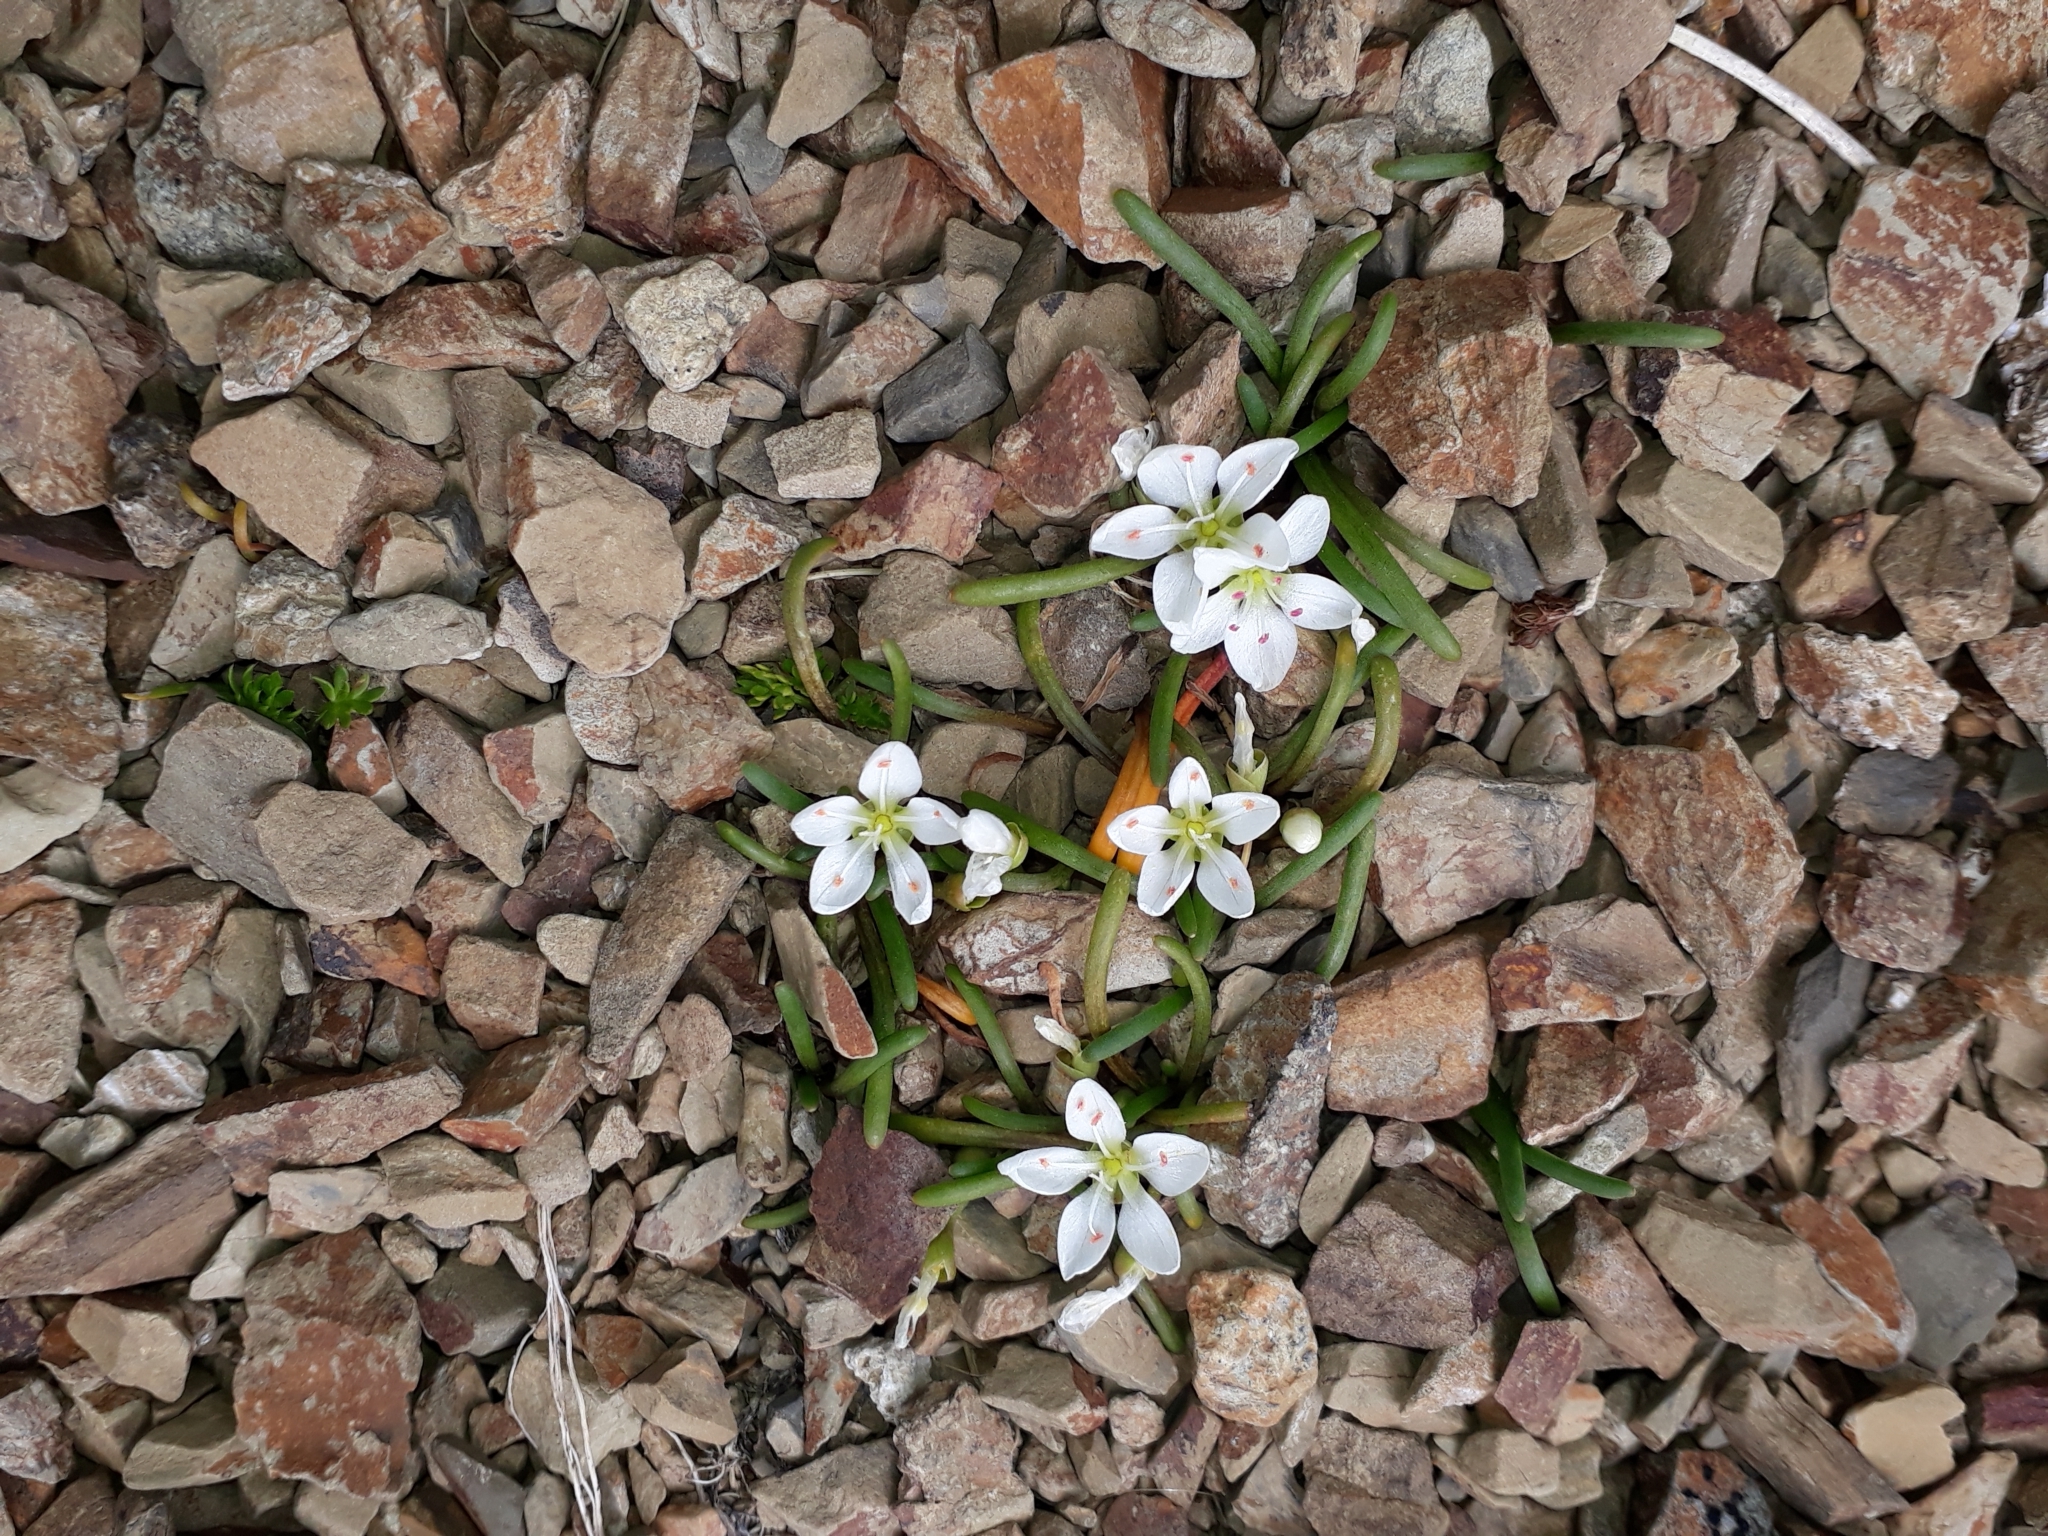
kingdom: Plantae
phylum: Tracheophyta
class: Magnoliopsida
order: Caryophyllales
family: Montiaceae
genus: Montia
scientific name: Montia calycina
